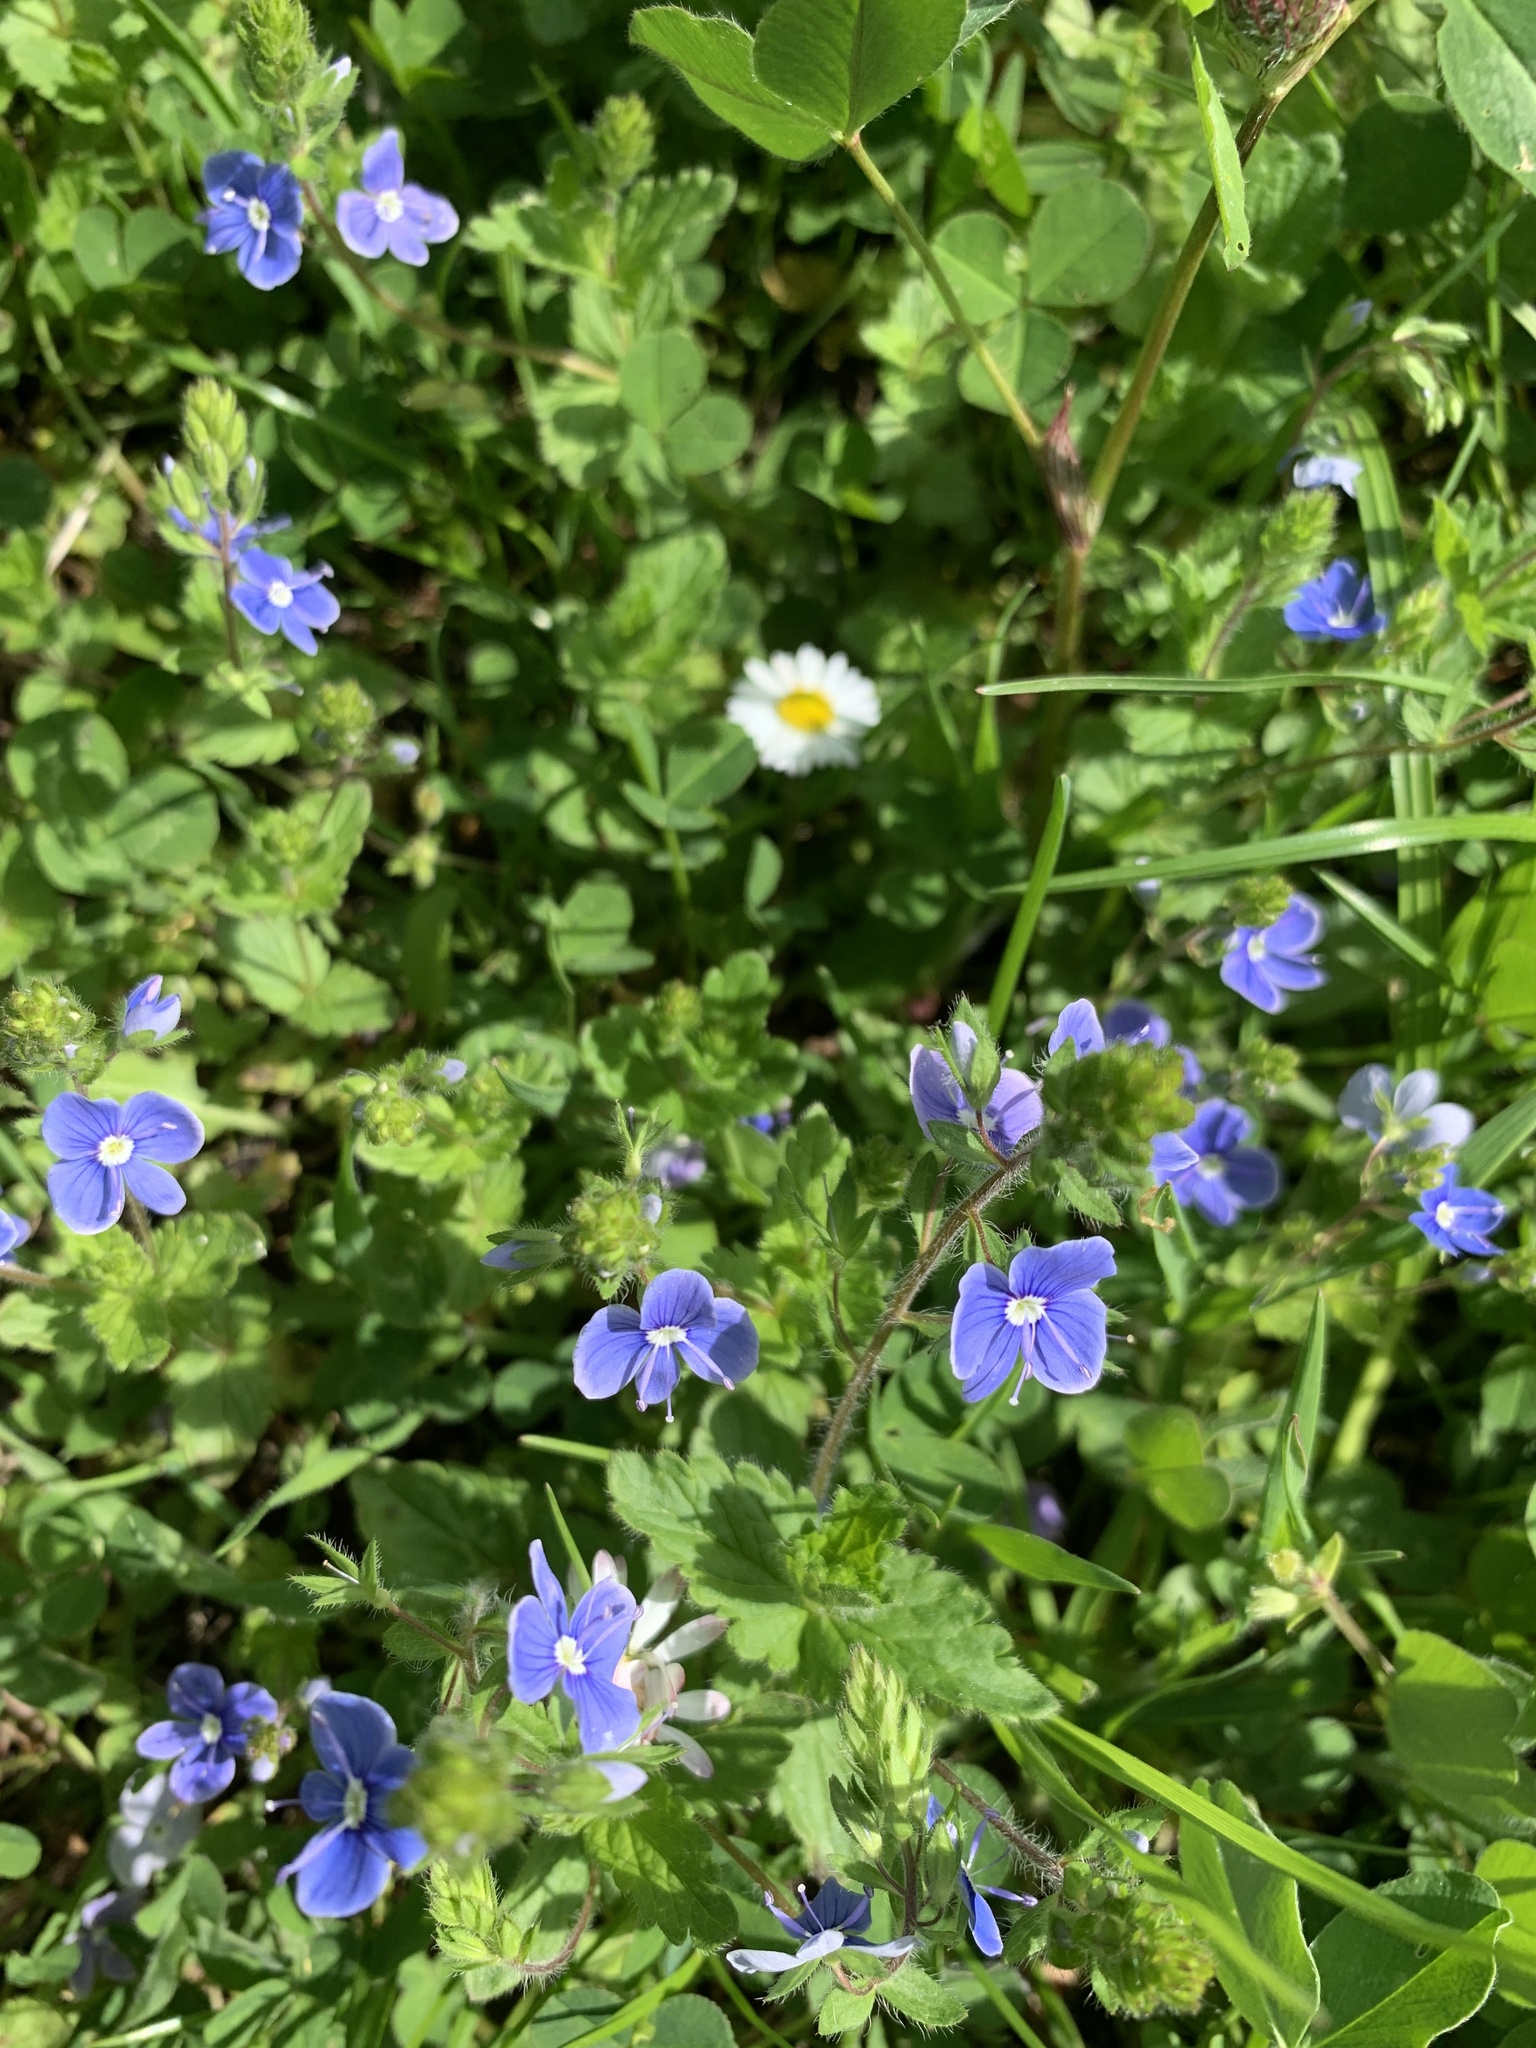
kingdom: Plantae
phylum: Tracheophyta
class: Magnoliopsida
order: Lamiales
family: Plantaginaceae
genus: Veronica
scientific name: Veronica chamaedrys
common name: Germander speedwell
